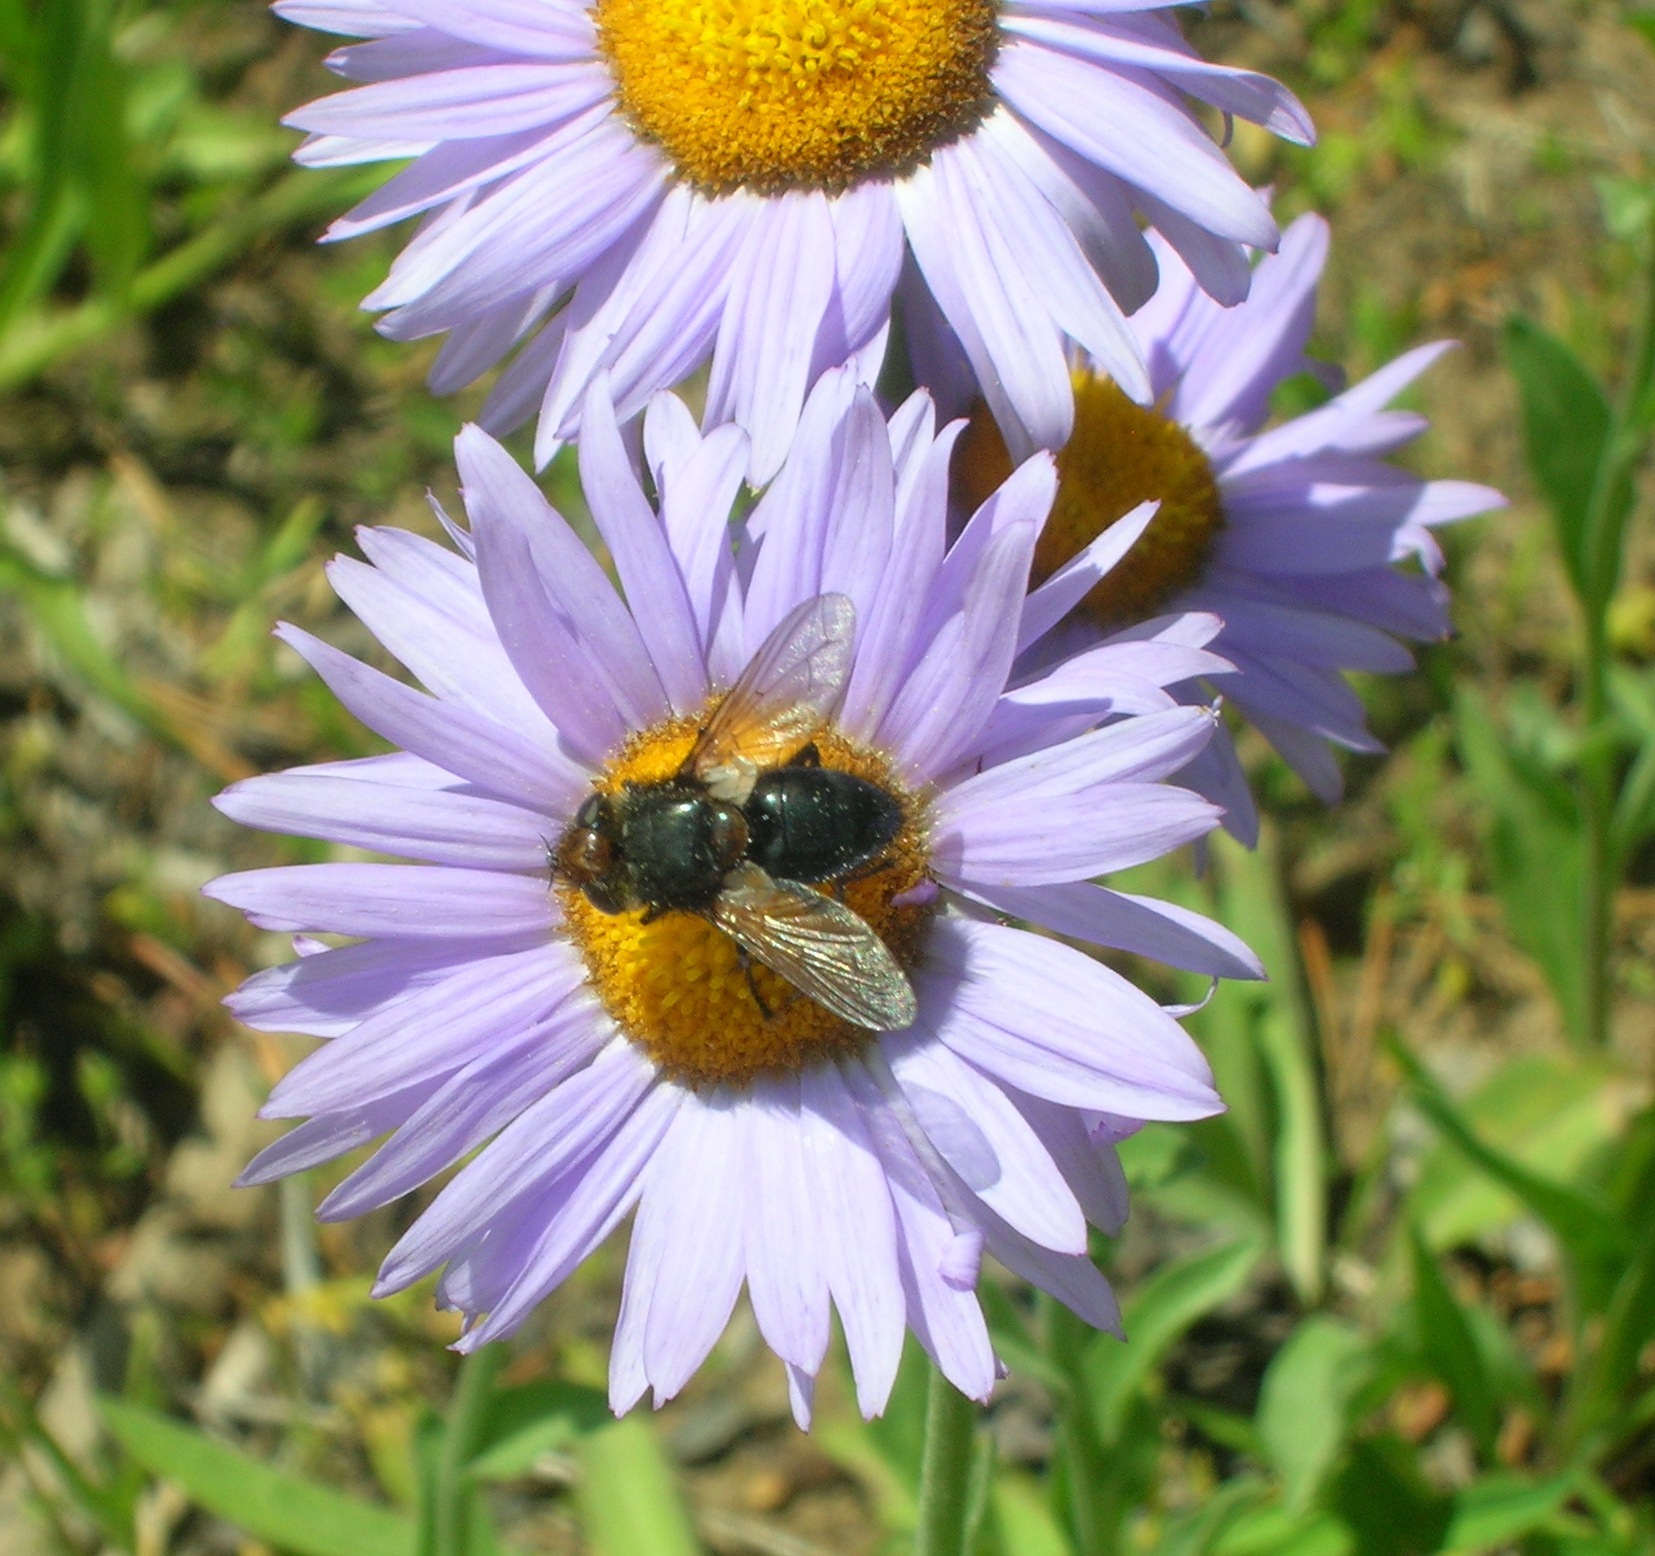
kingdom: Plantae
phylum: Tracheophyta
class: Magnoliopsida
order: Asterales
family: Asteraceae
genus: Erigeron
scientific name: Erigeron glacialis
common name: Subalpine fleabane
